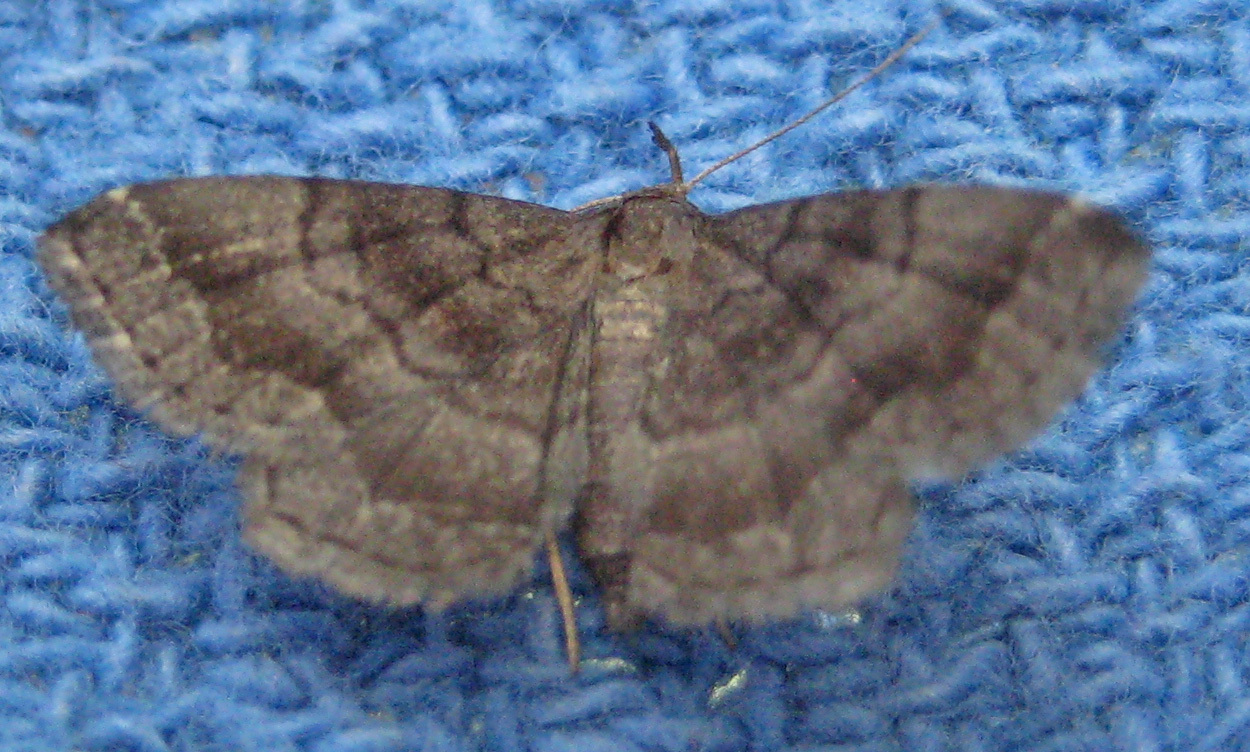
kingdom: Animalia
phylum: Arthropoda
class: Insecta
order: Lepidoptera
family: Erebidae
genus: Phalaenostola
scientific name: Phalaenostola larentioides
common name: Black-banded owlet
